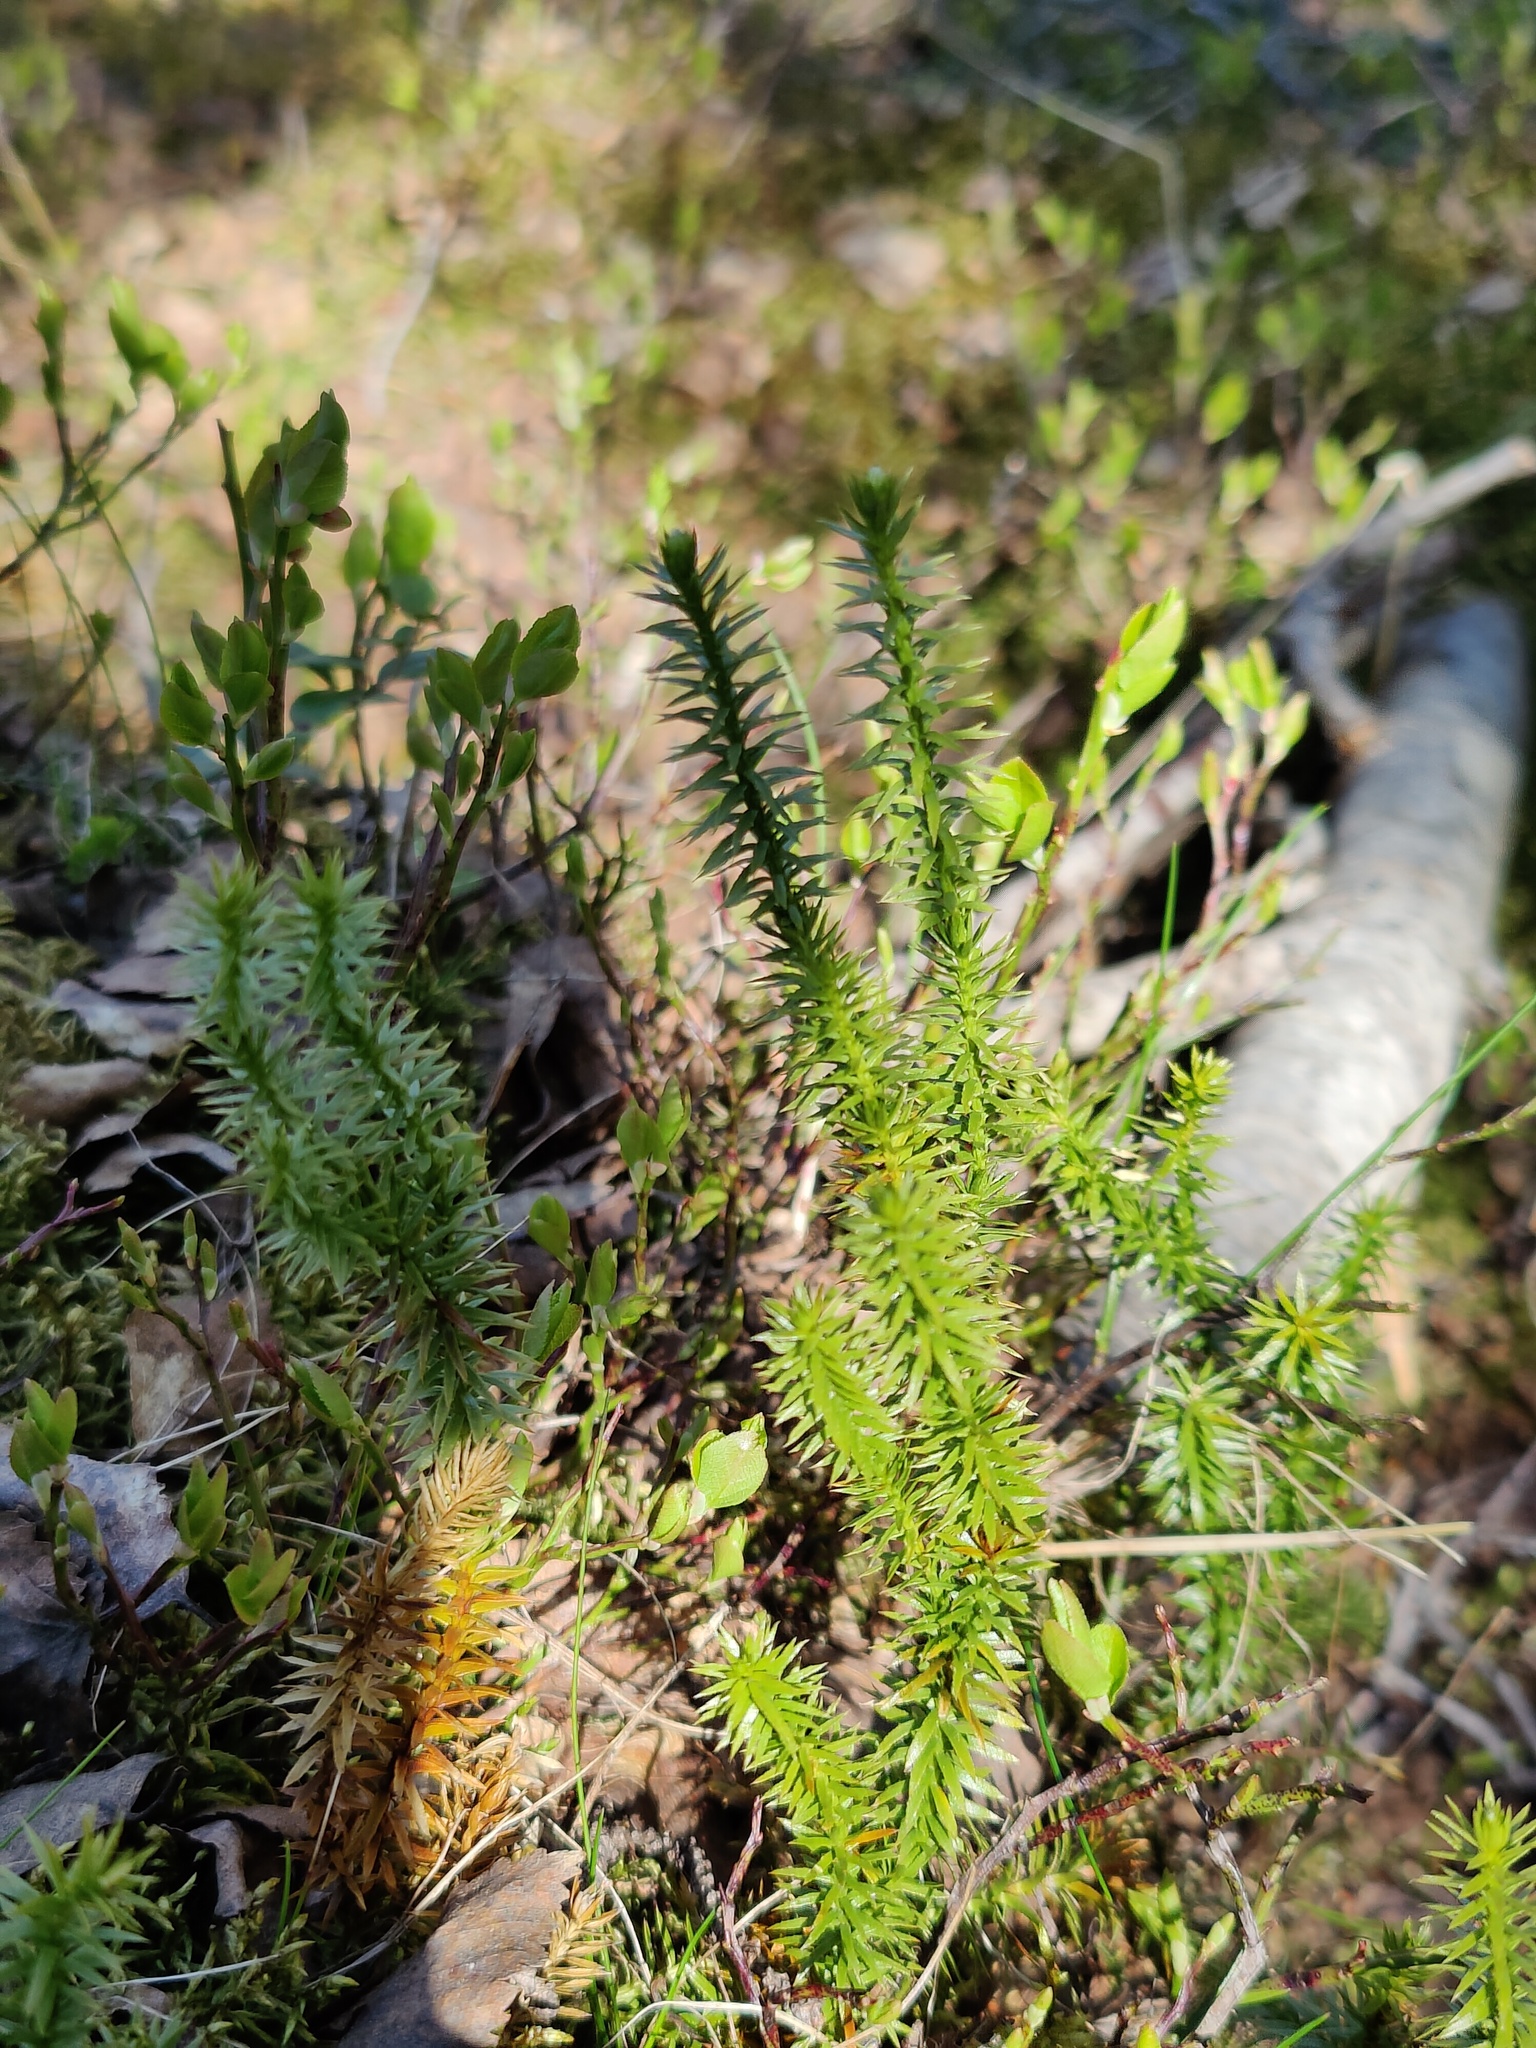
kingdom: Plantae
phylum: Tracheophyta
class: Lycopodiopsida
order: Lycopodiales
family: Lycopodiaceae
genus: Spinulum
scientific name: Spinulum annotinum
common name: Interrupted club-moss
